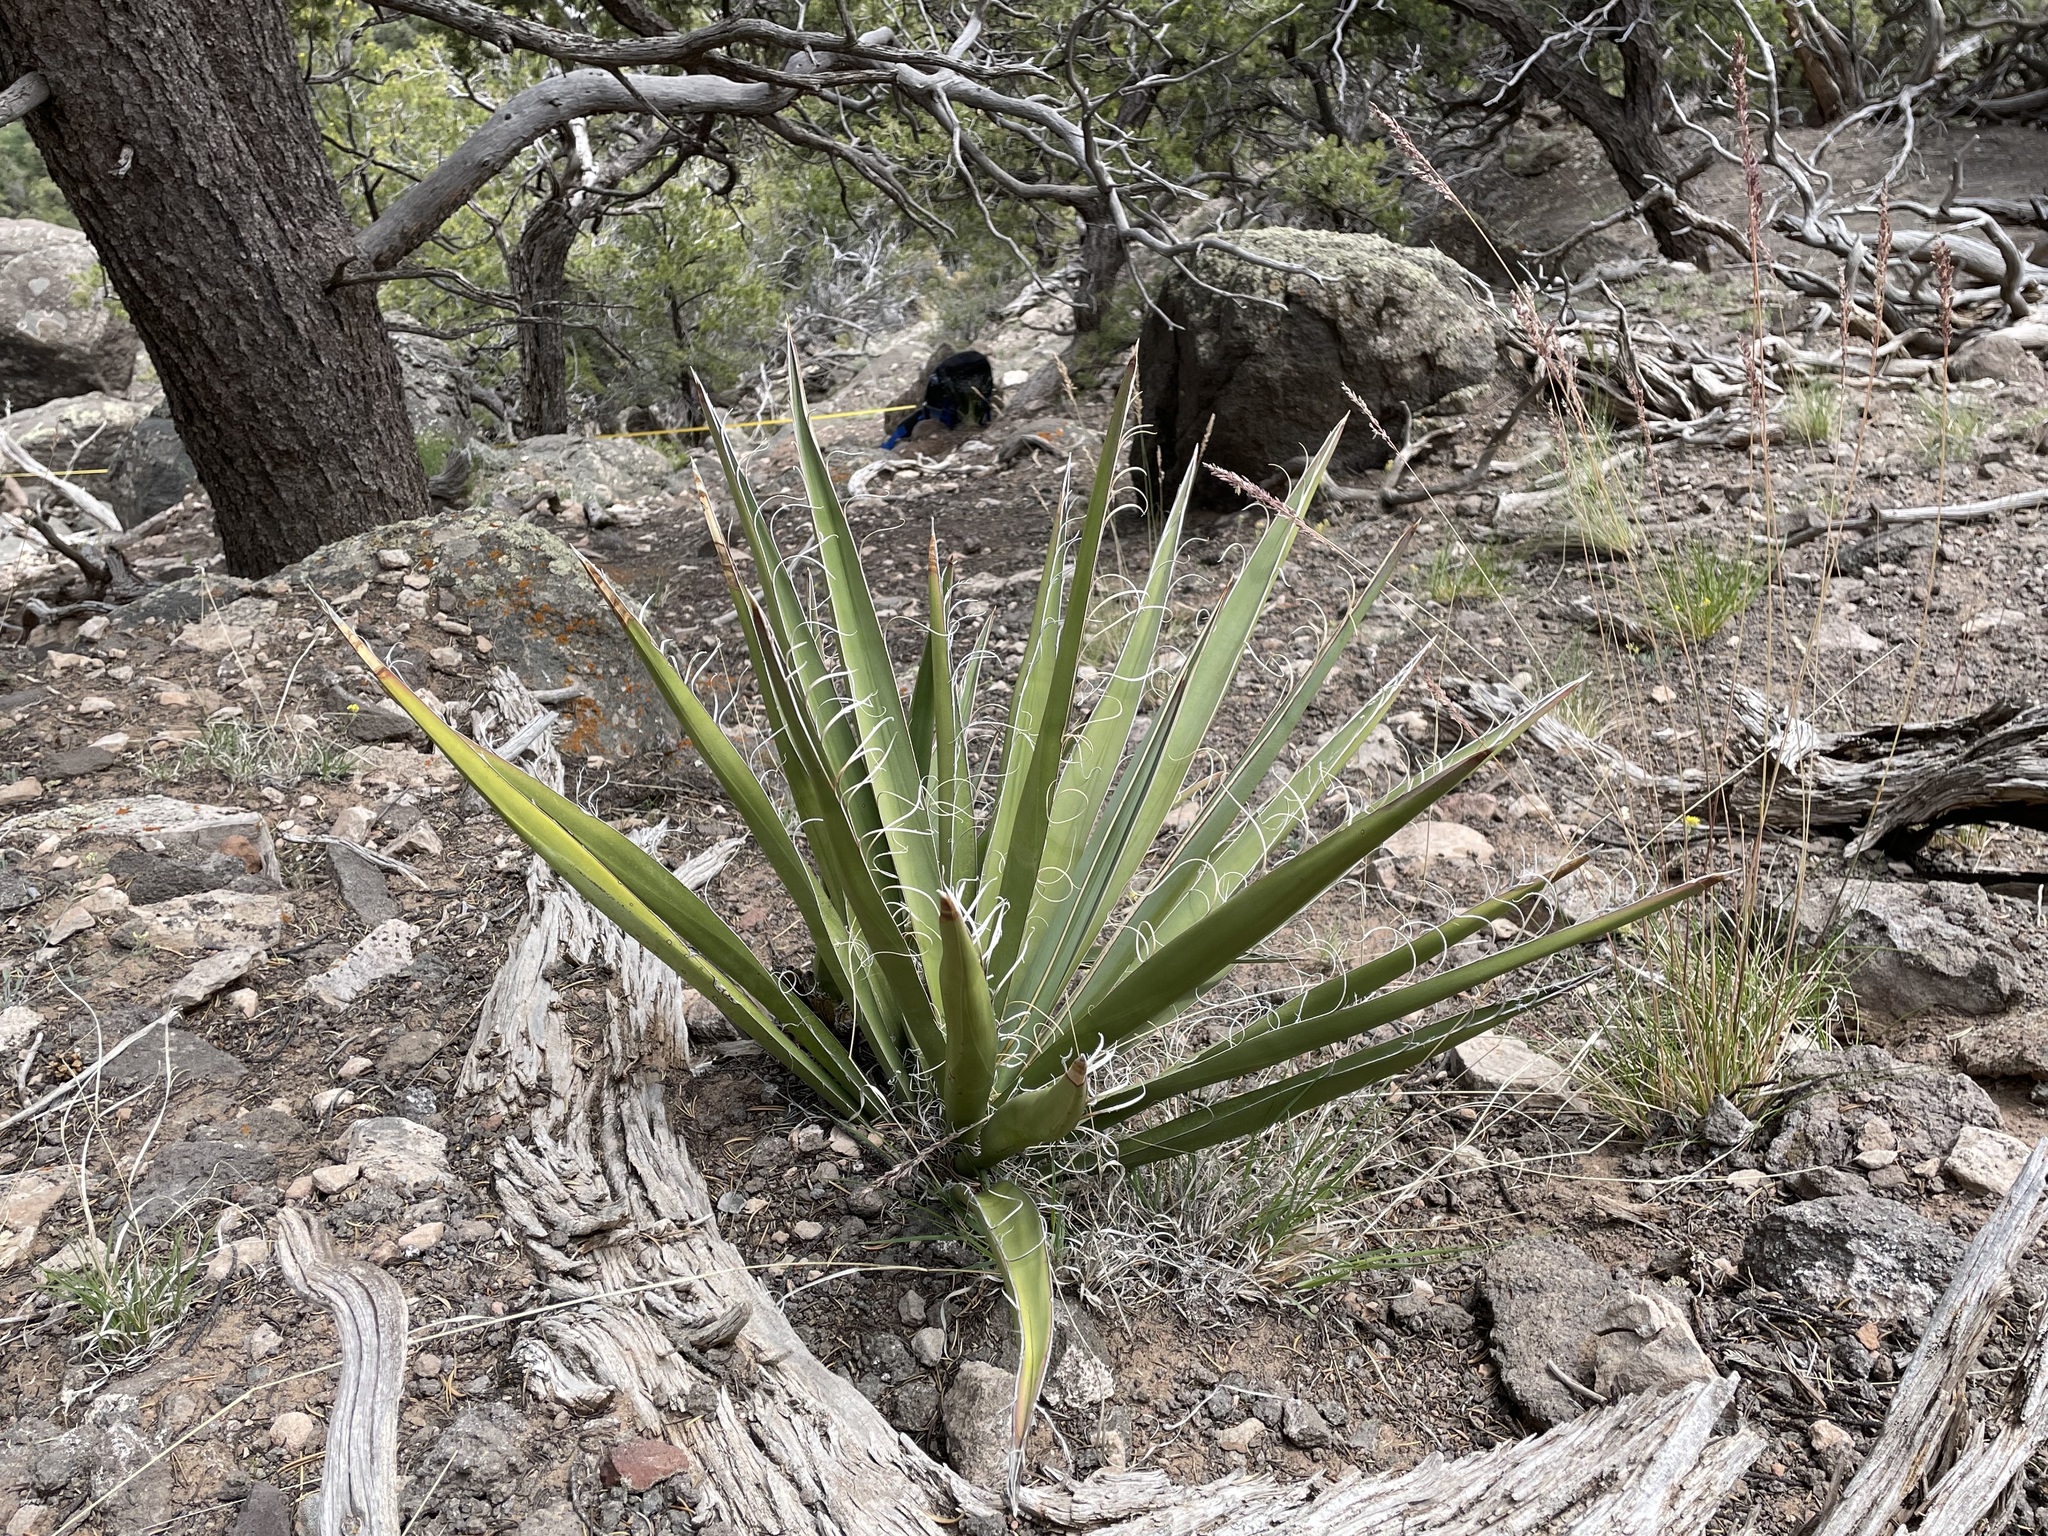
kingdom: Plantae
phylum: Tracheophyta
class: Liliopsida
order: Asparagales
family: Asparagaceae
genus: Yucca
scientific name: Yucca baccata
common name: Banana yucca
